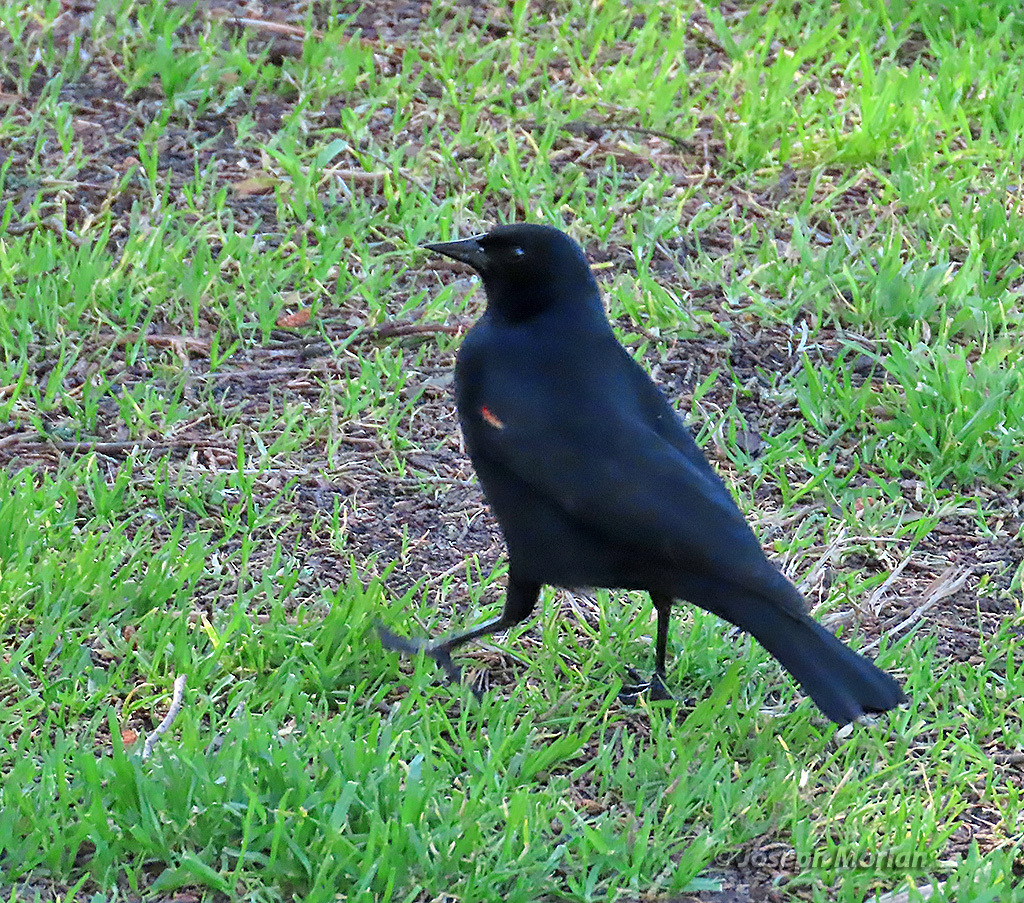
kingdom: Animalia
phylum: Chordata
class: Aves
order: Passeriformes
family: Icteridae
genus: Agelaius
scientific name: Agelaius phoeniceus
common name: Red-winged blackbird
